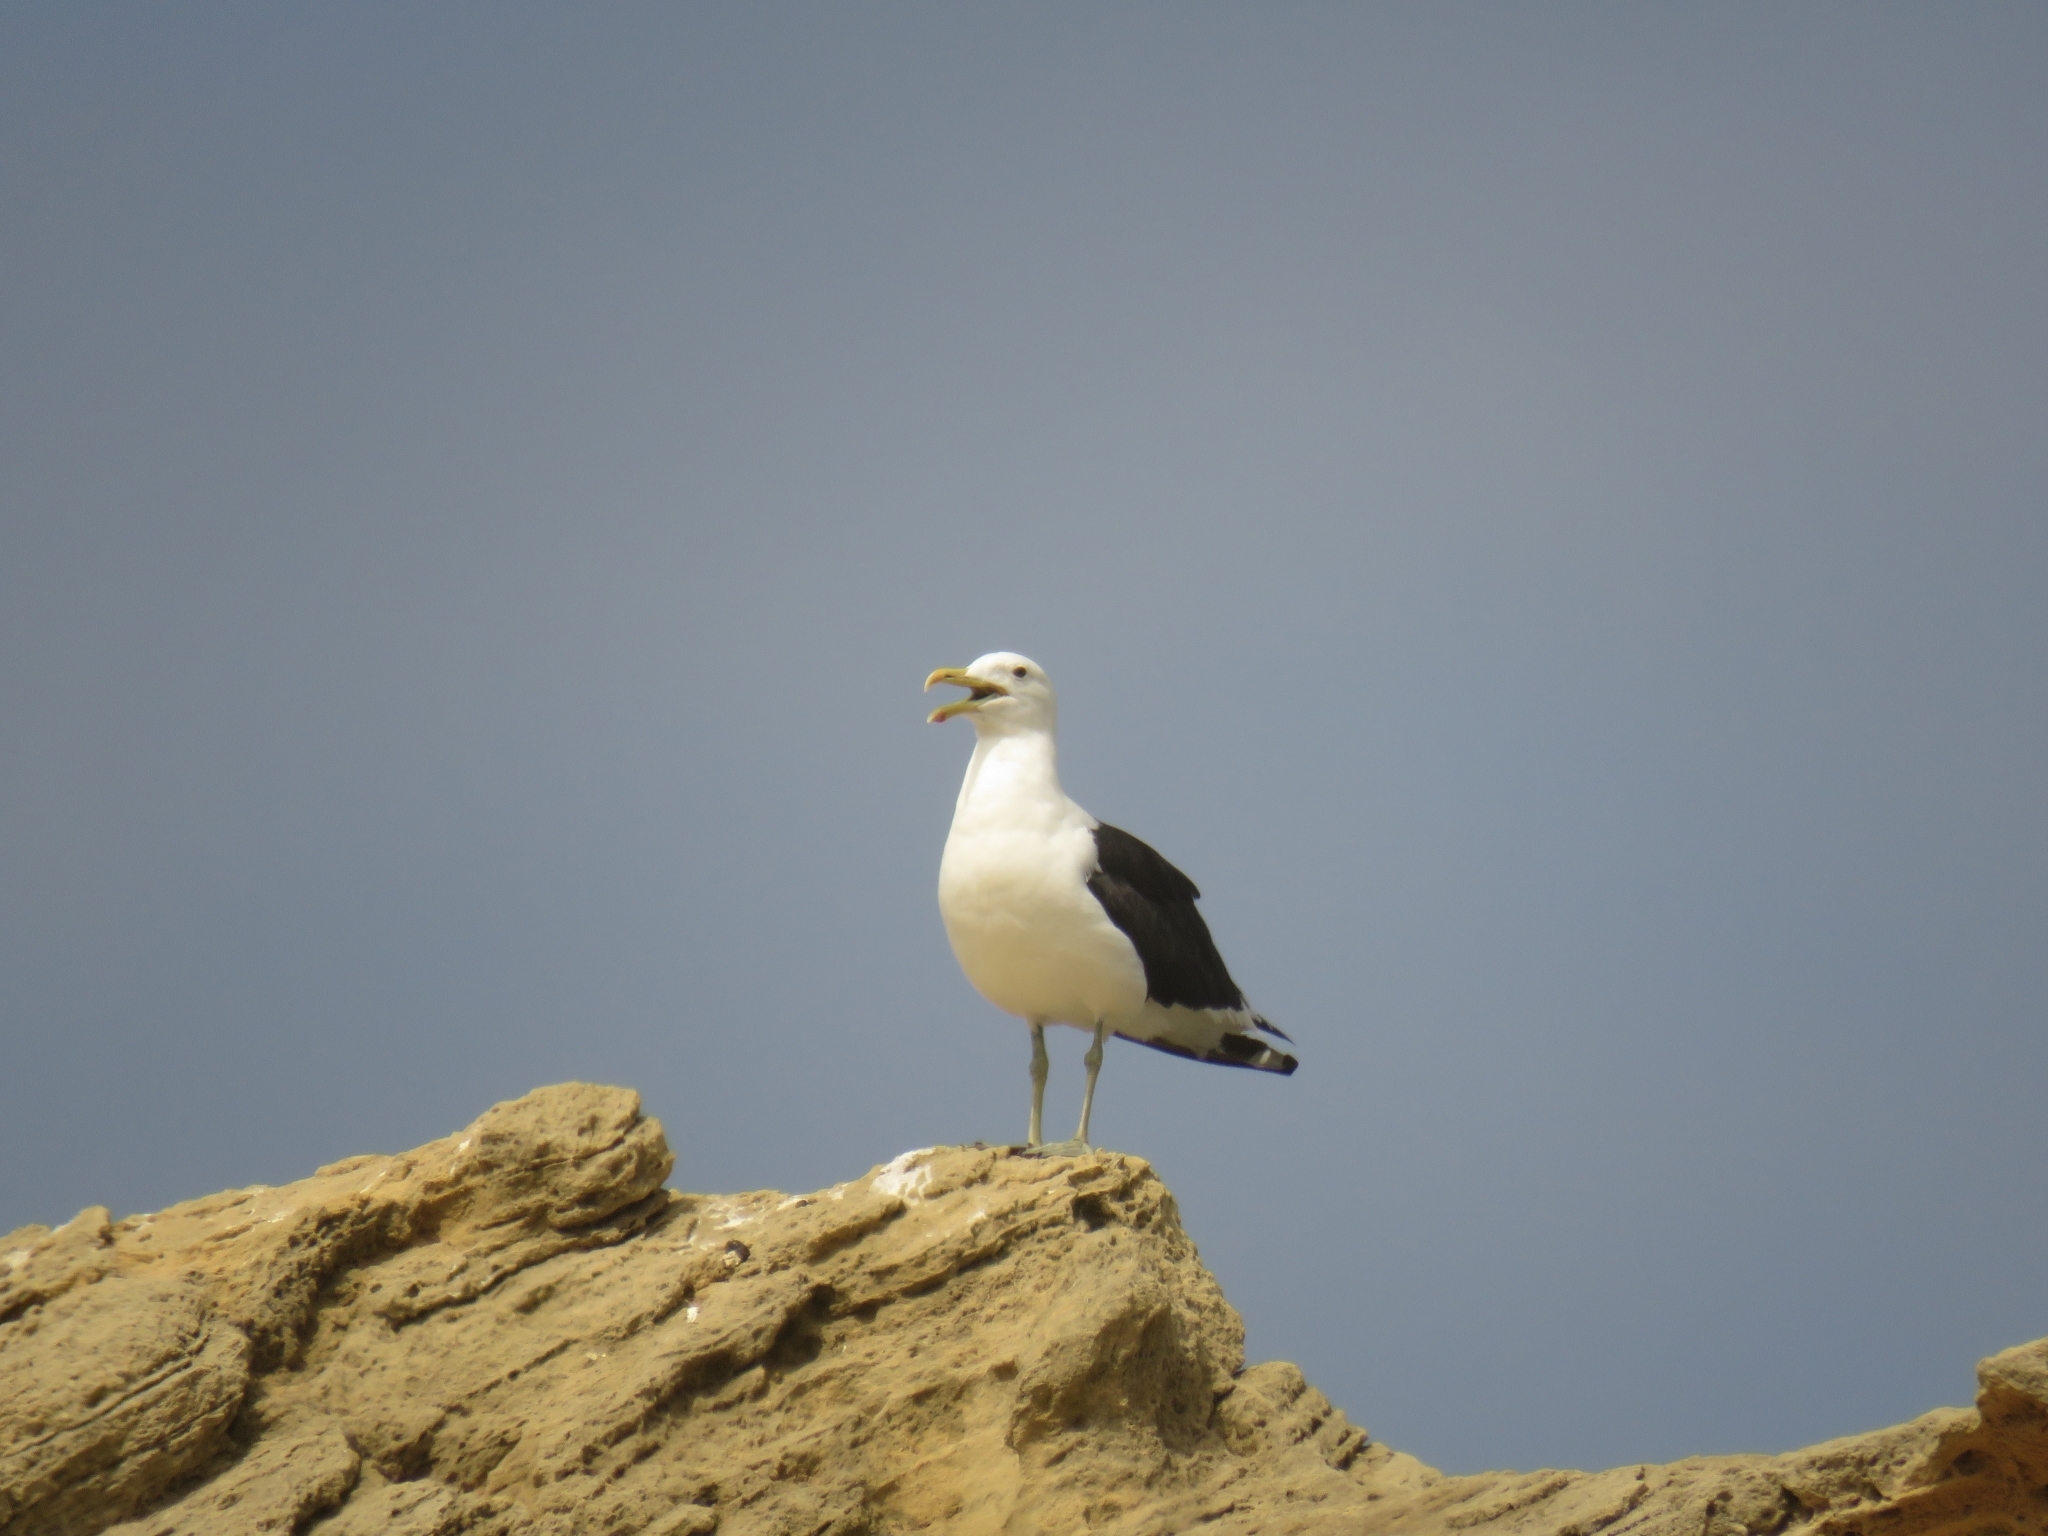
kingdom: Animalia
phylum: Chordata
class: Aves
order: Charadriiformes
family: Laridae
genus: Larus
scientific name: Larus dominicanus
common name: Kelp gull
